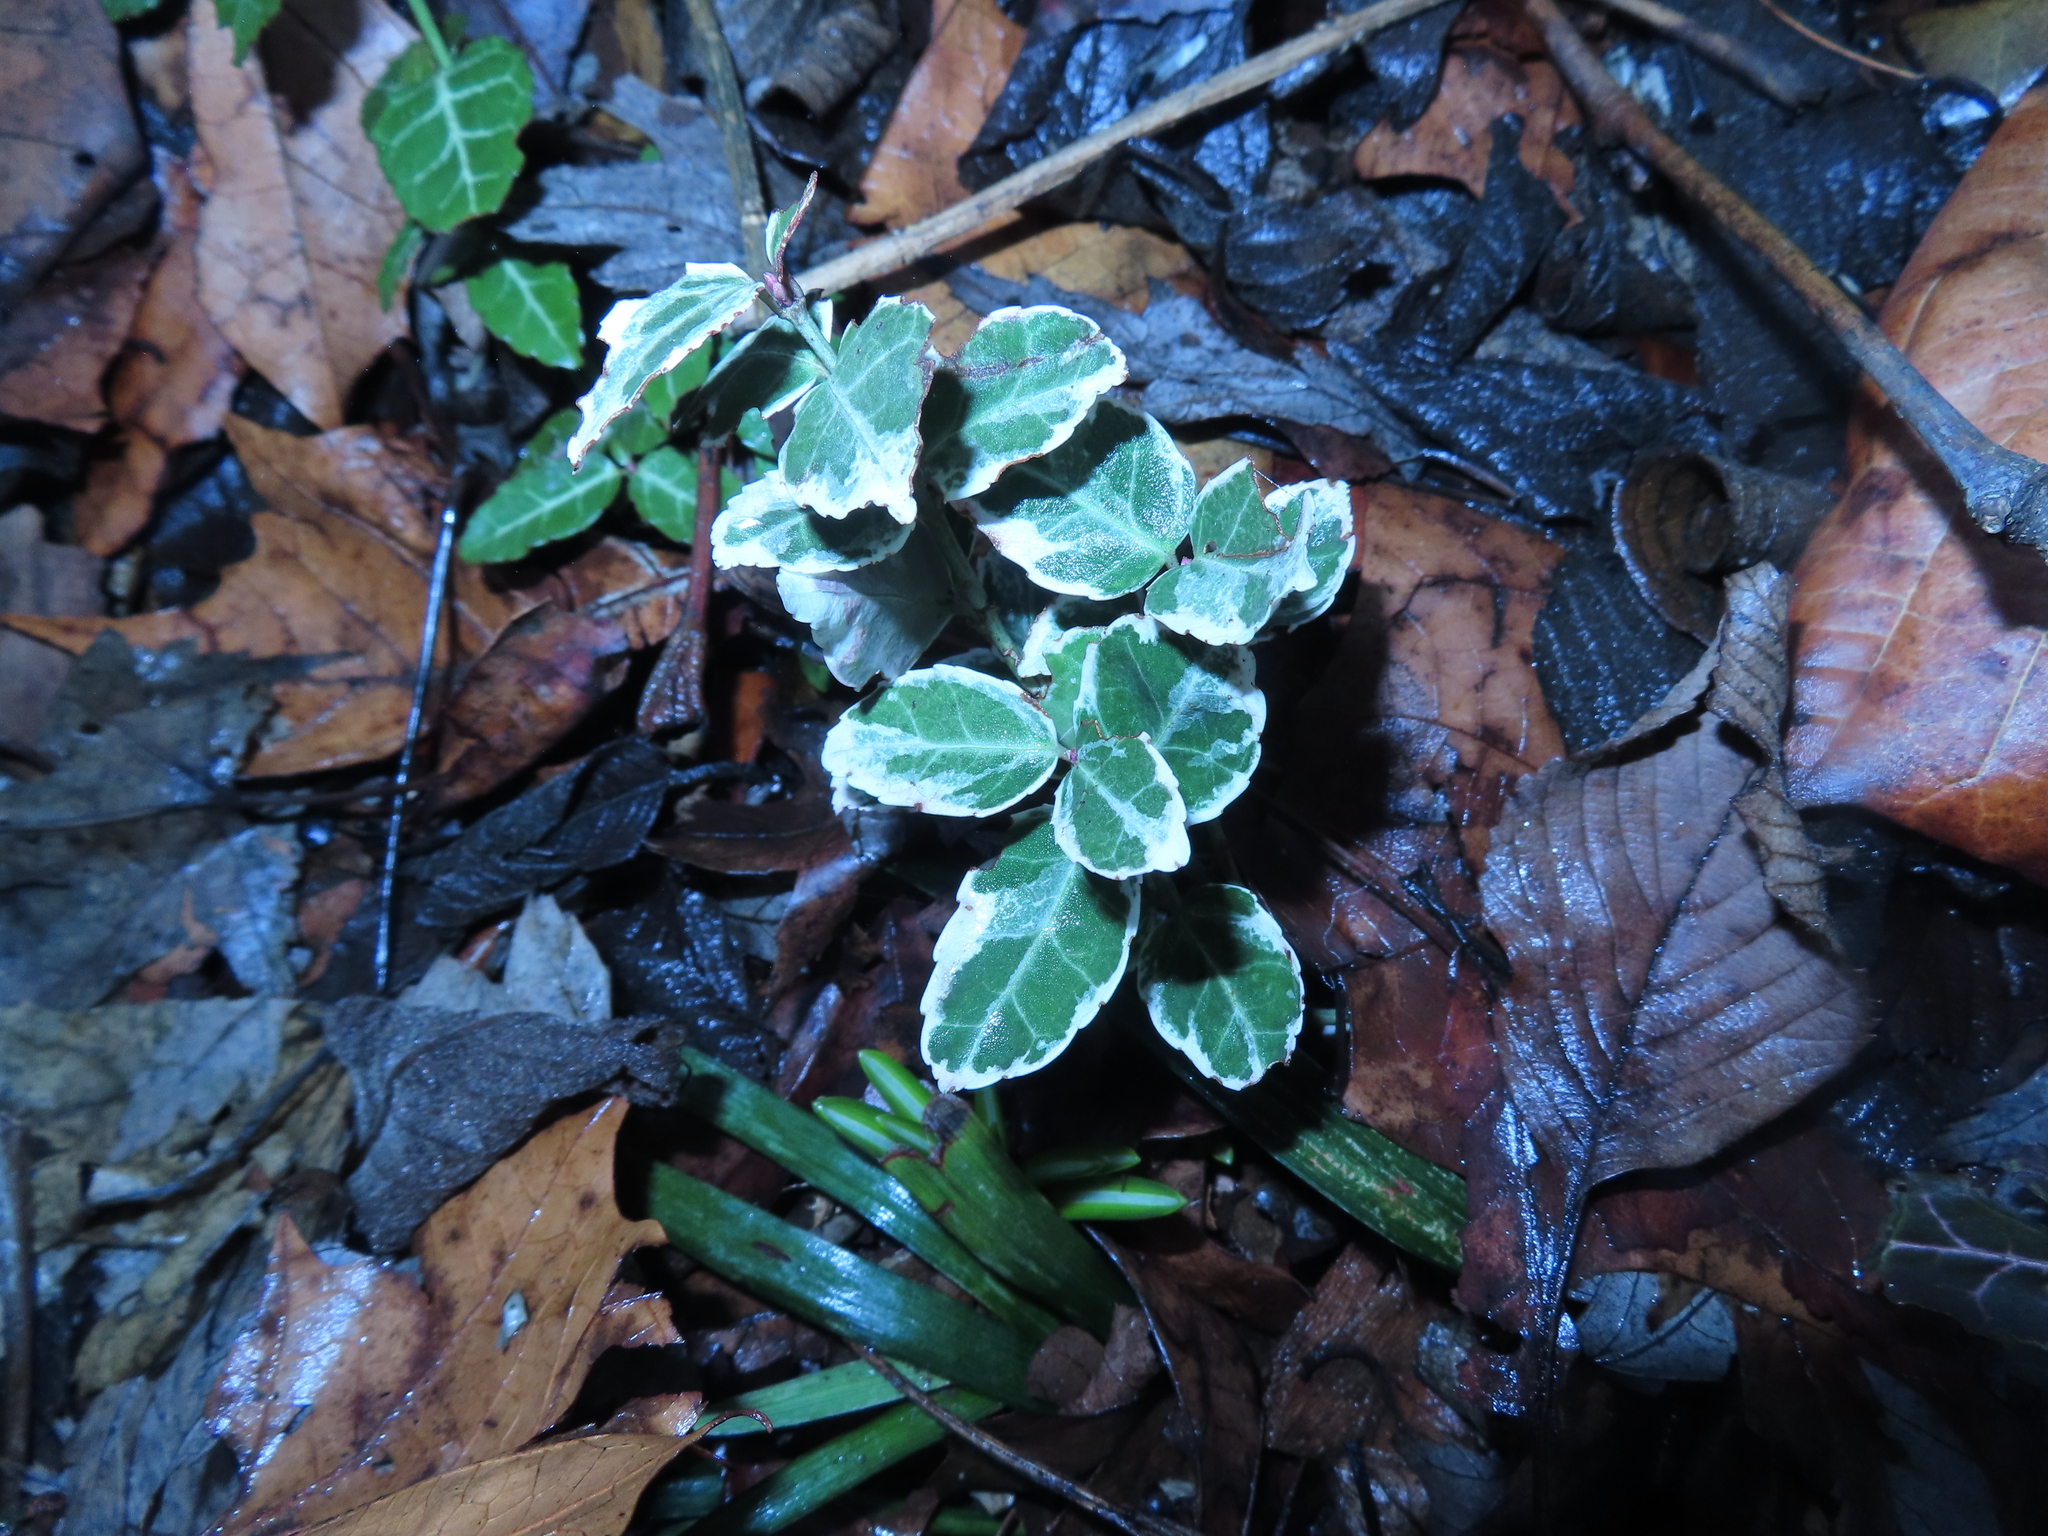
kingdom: Plantae
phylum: Tracheophyta
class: Magnoliopsida
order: Celastrales
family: Celastraceae
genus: Euonymus
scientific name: Euonymus fortunei
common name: Climbing euonymus
